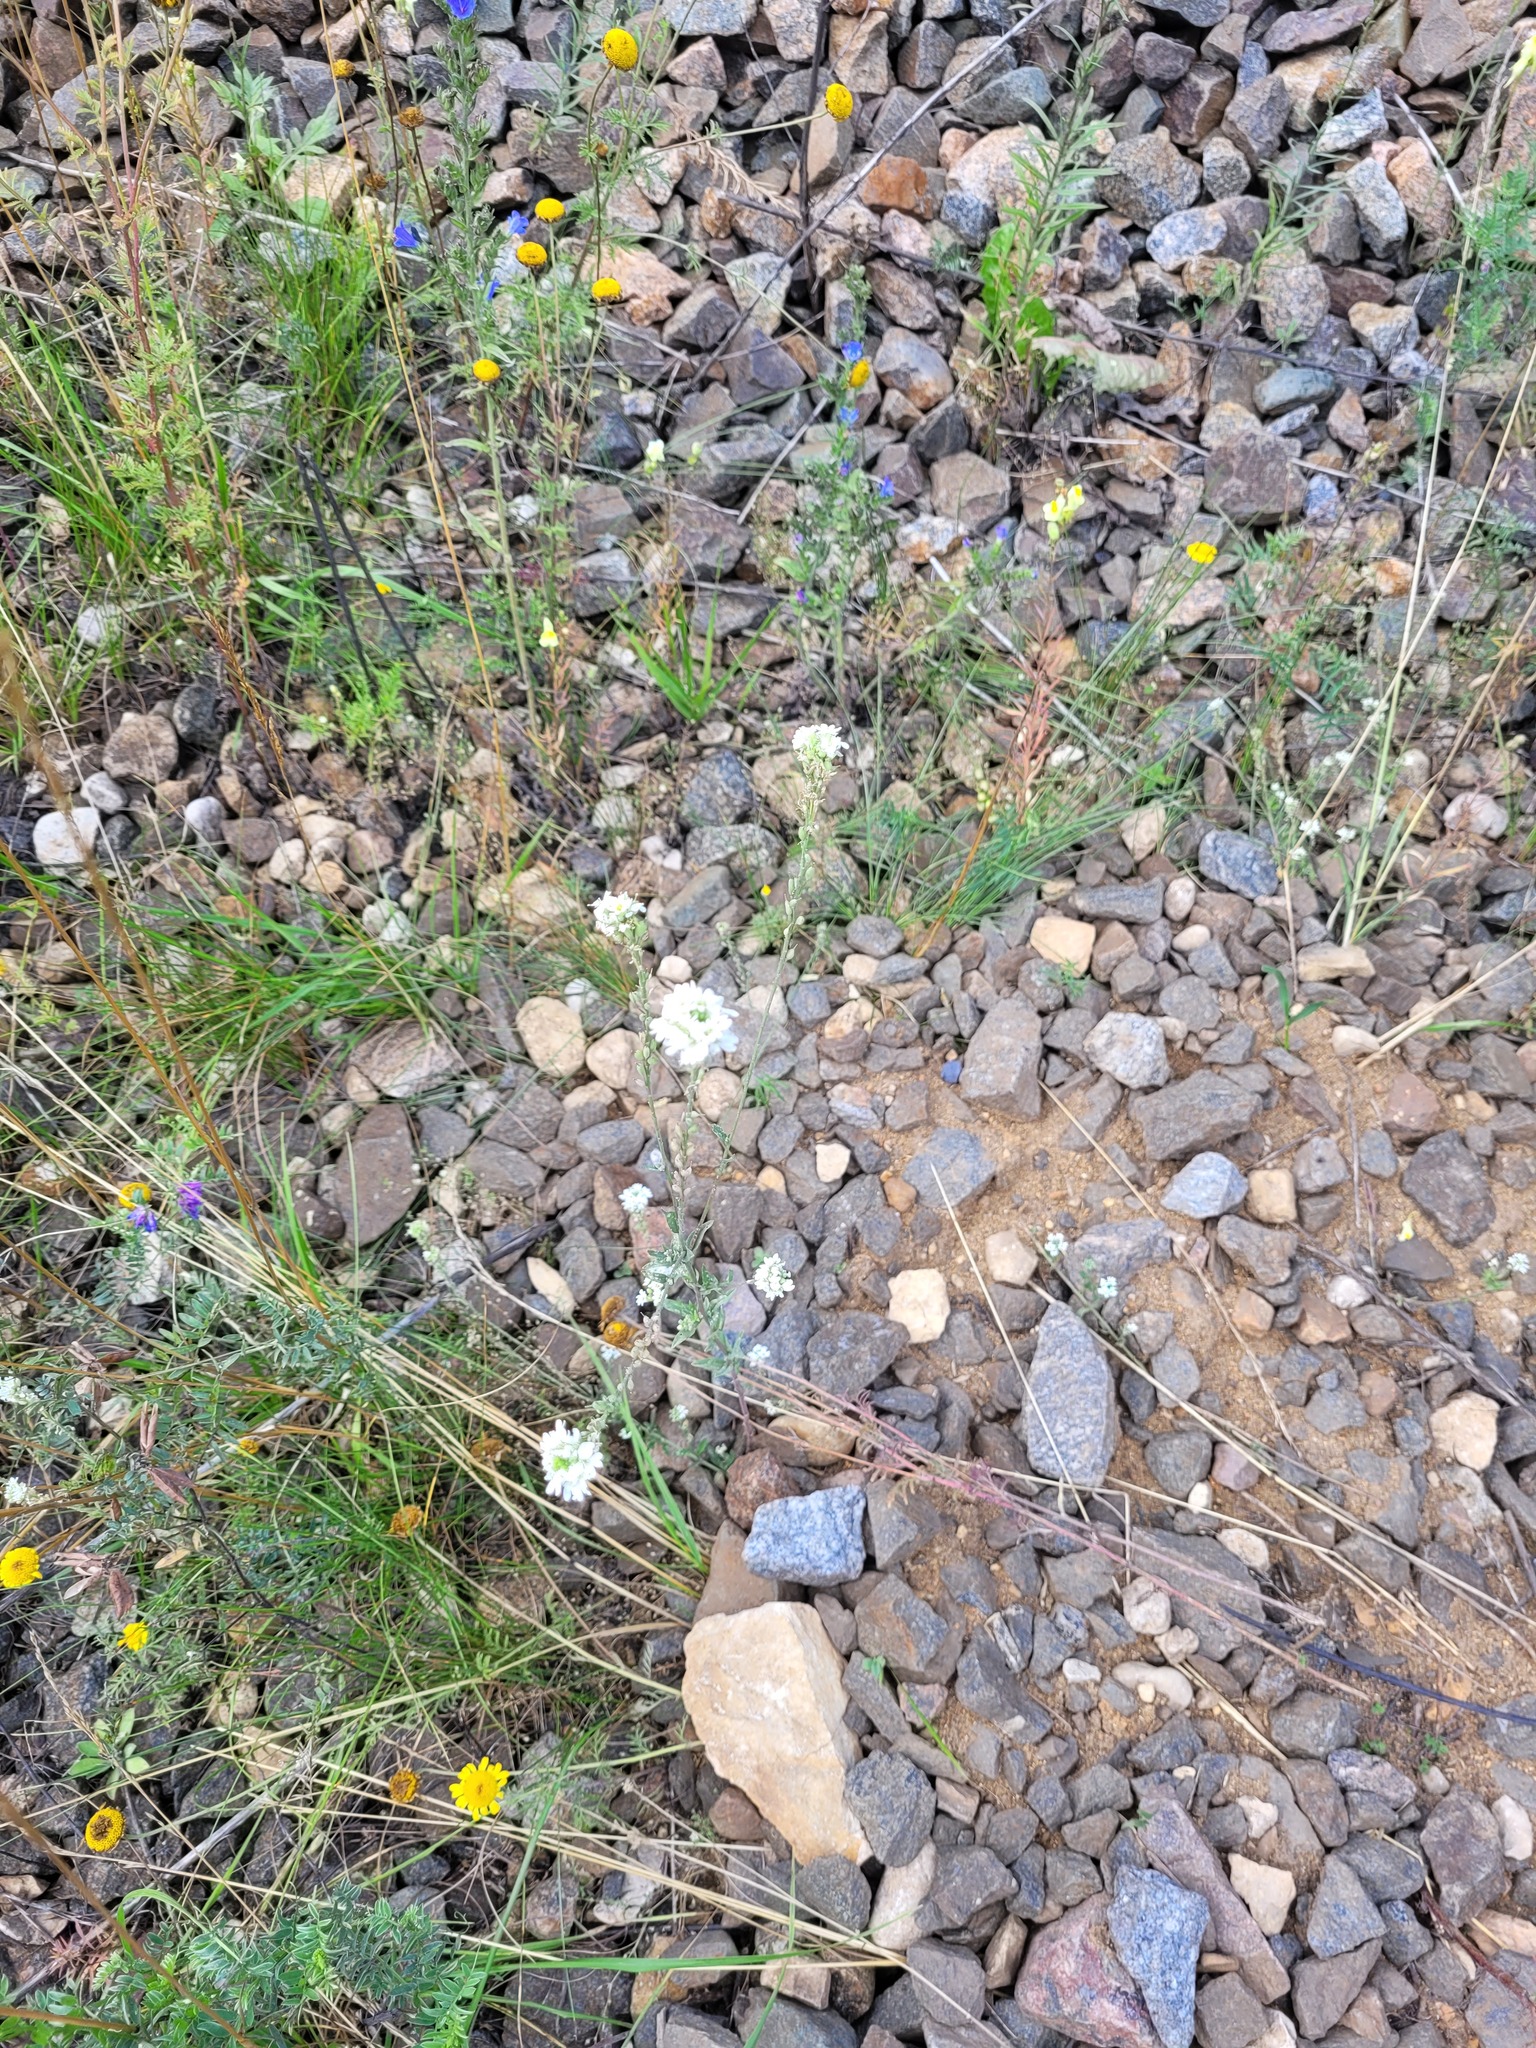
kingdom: Plantae
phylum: Tracheophyta
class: Magnoliopsida
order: Brassicales
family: Brassicaceae
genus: Berteroa
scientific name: Berteroa incana
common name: Hoary alison
